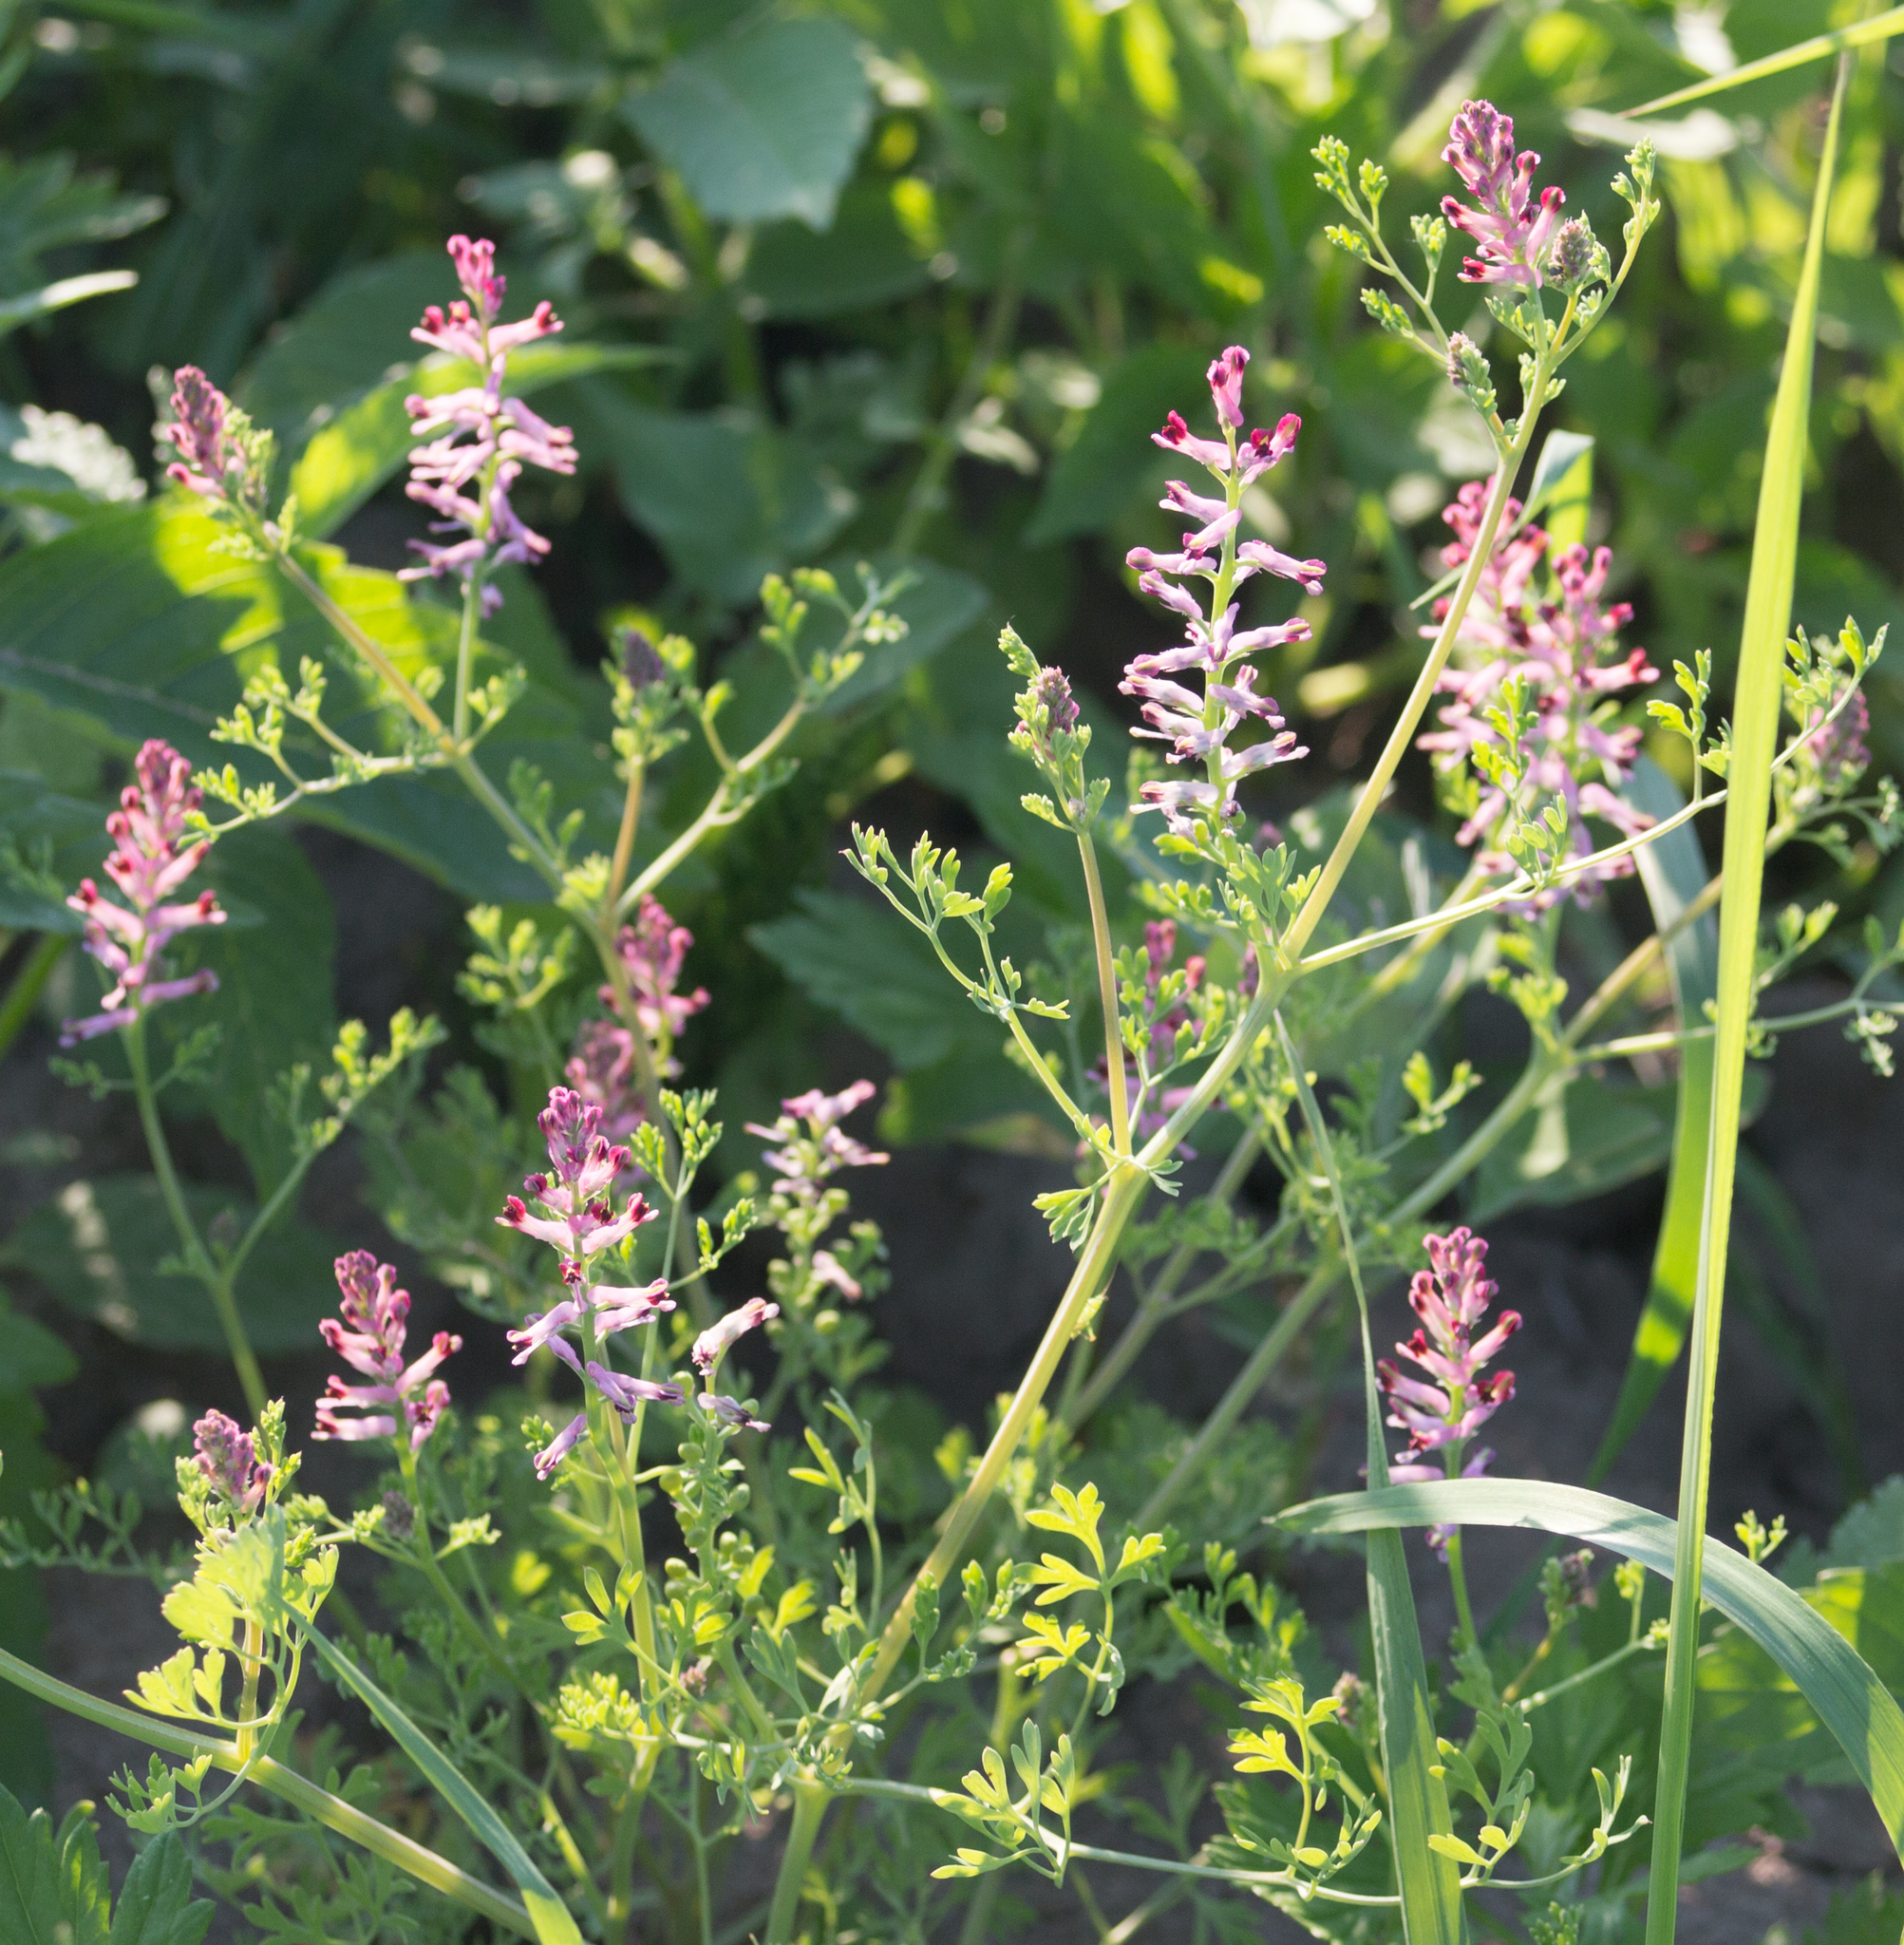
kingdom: Plantae
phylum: Tracheophyta
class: Magnoliopsida
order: Ranunculales
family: Papaveraceae
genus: Fumaria
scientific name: Fumaria officinalis
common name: Common fumitory
